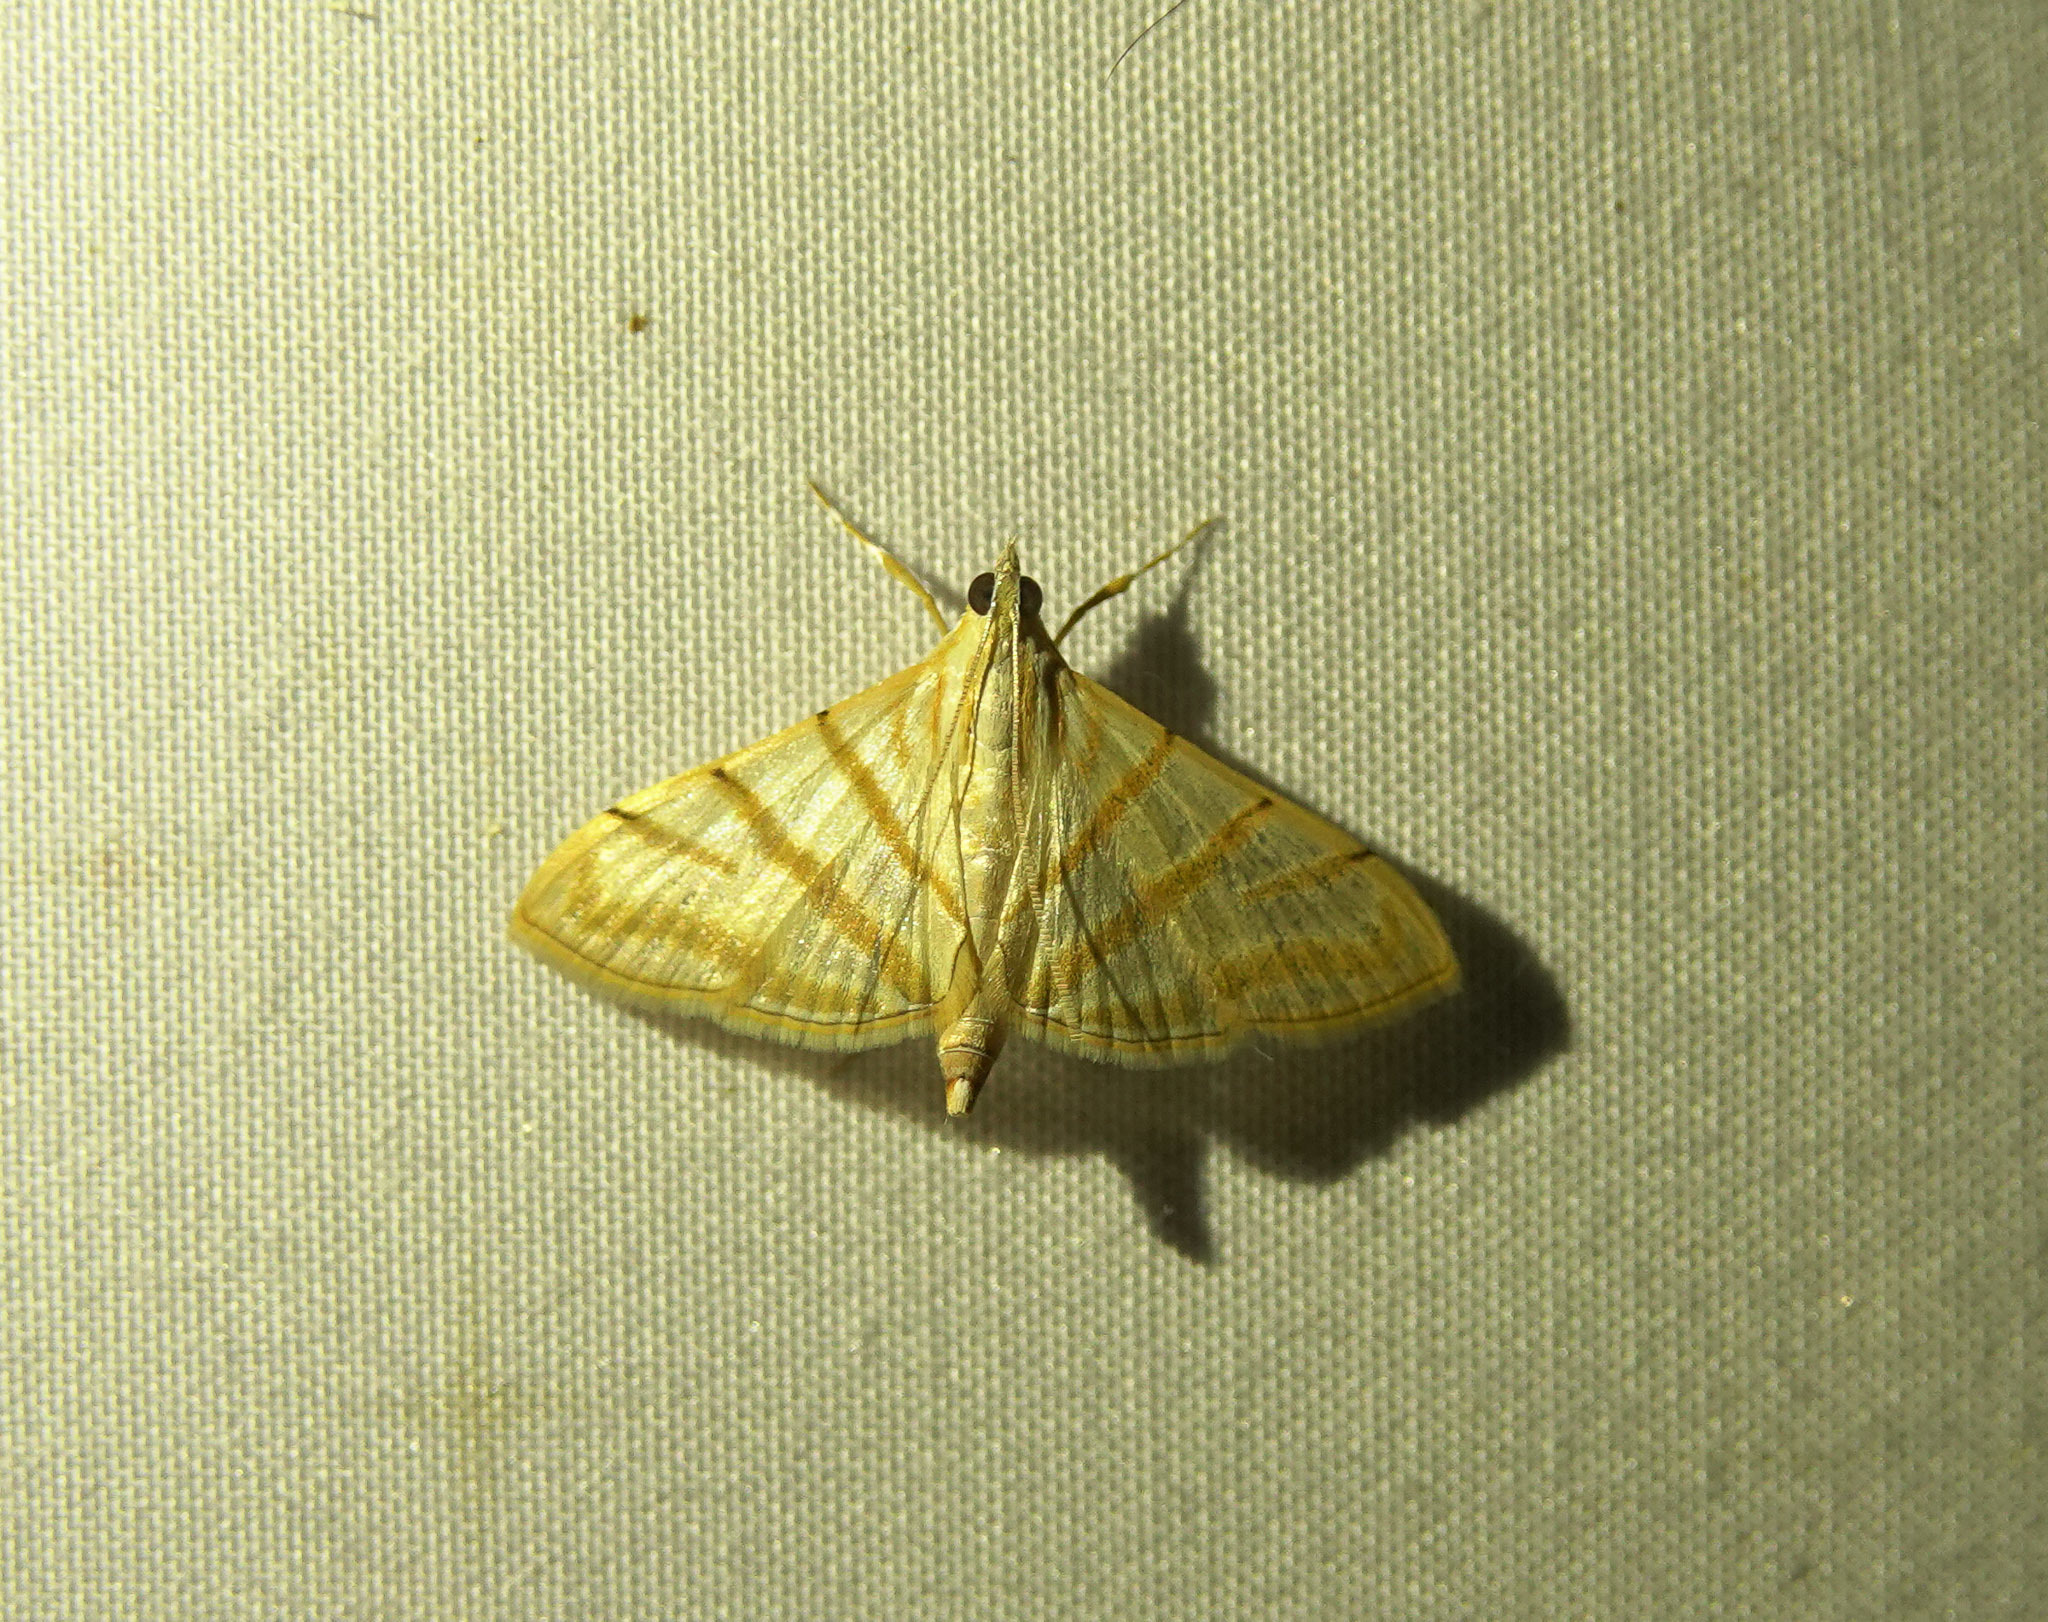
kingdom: Animalia
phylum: Arthropoda
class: Insecta
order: Lepidoptera
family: Crambidae
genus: Pagyda
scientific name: Pagyda salvalis
